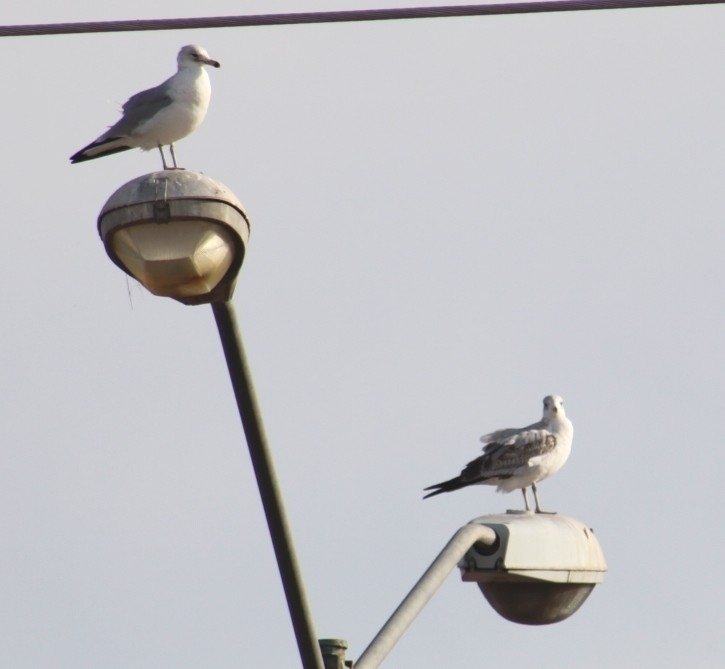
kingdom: Animalia
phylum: Chordata
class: Aves
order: Charadriiformes
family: Laridae
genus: Larus
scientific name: Larus delawarensis
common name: Ring-billed gull
